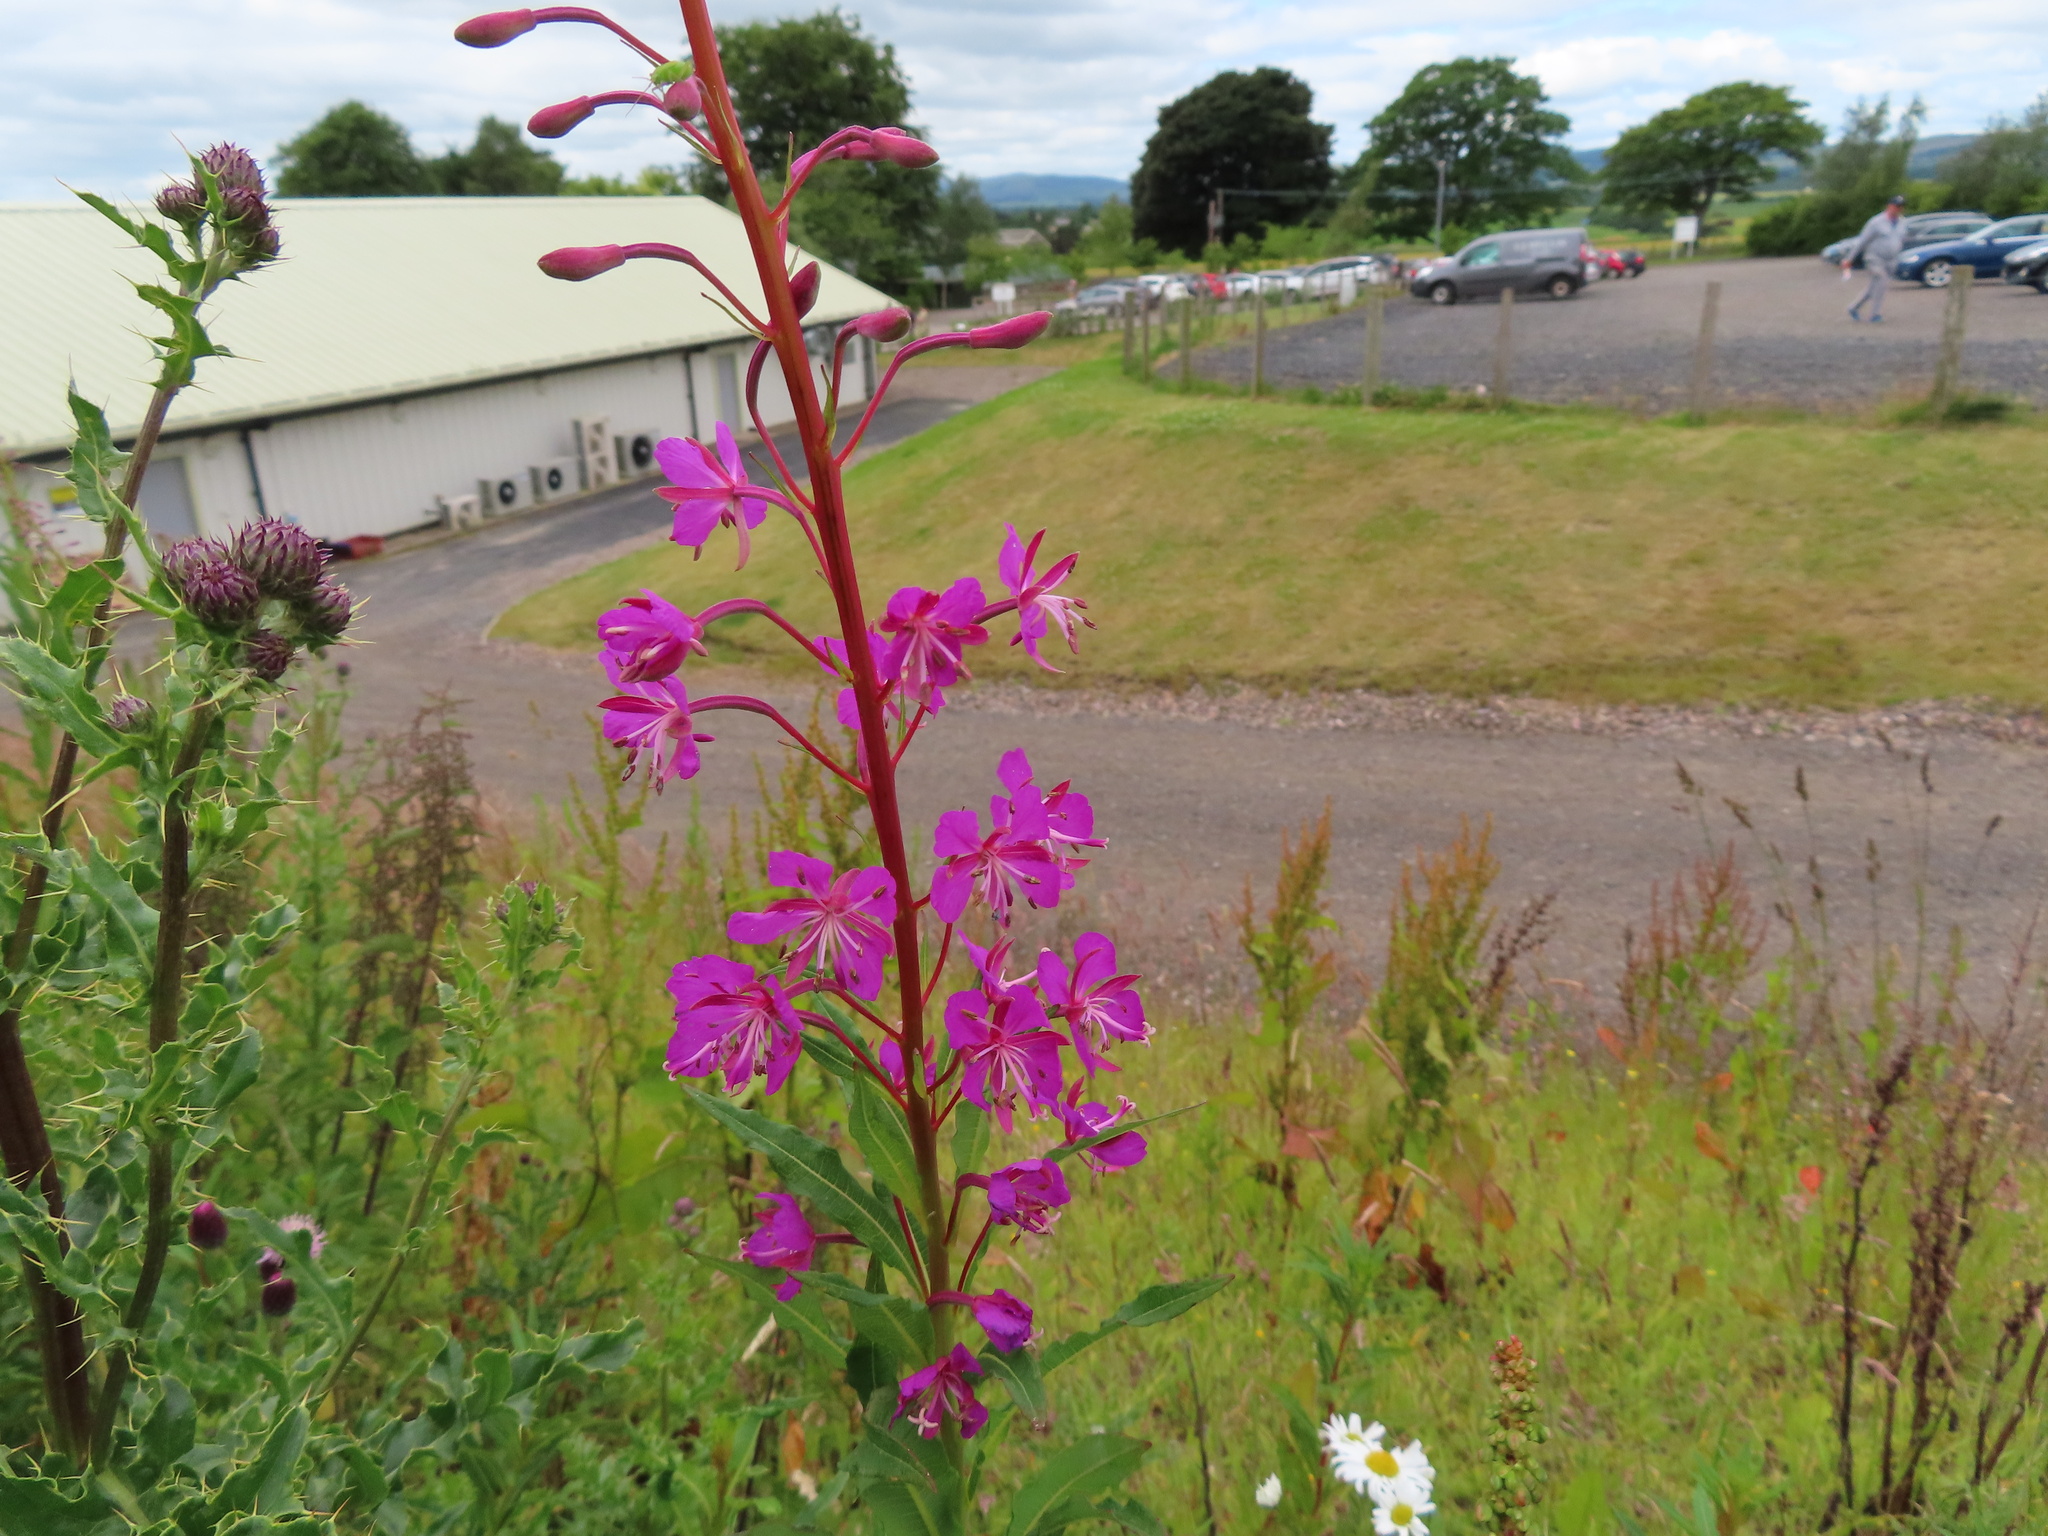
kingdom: Plantae
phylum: Tracheophyta
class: Magnoliopsida
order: Myrtales
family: Onagraceae
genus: Chamaenerion
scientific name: Chamaenerion angustifolium
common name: Fireweed
